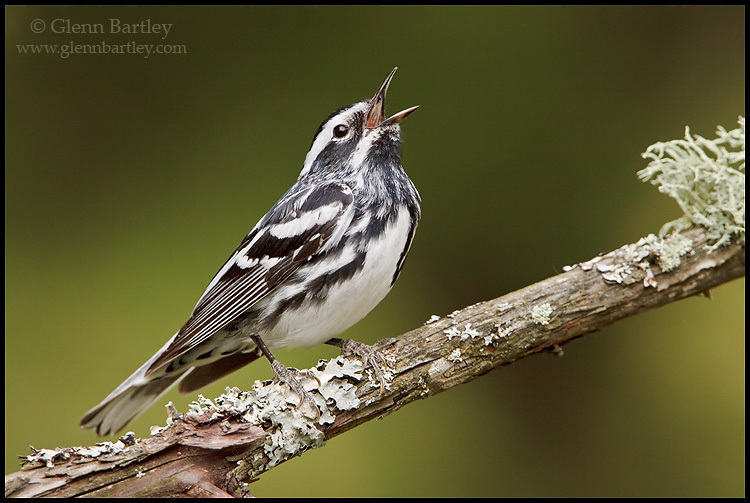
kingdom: Animalia
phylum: Chordata
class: Aves
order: Passeriformes
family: Parulidae
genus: Mniotilta
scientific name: Mniotilta varia
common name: Black-and-white warbler
